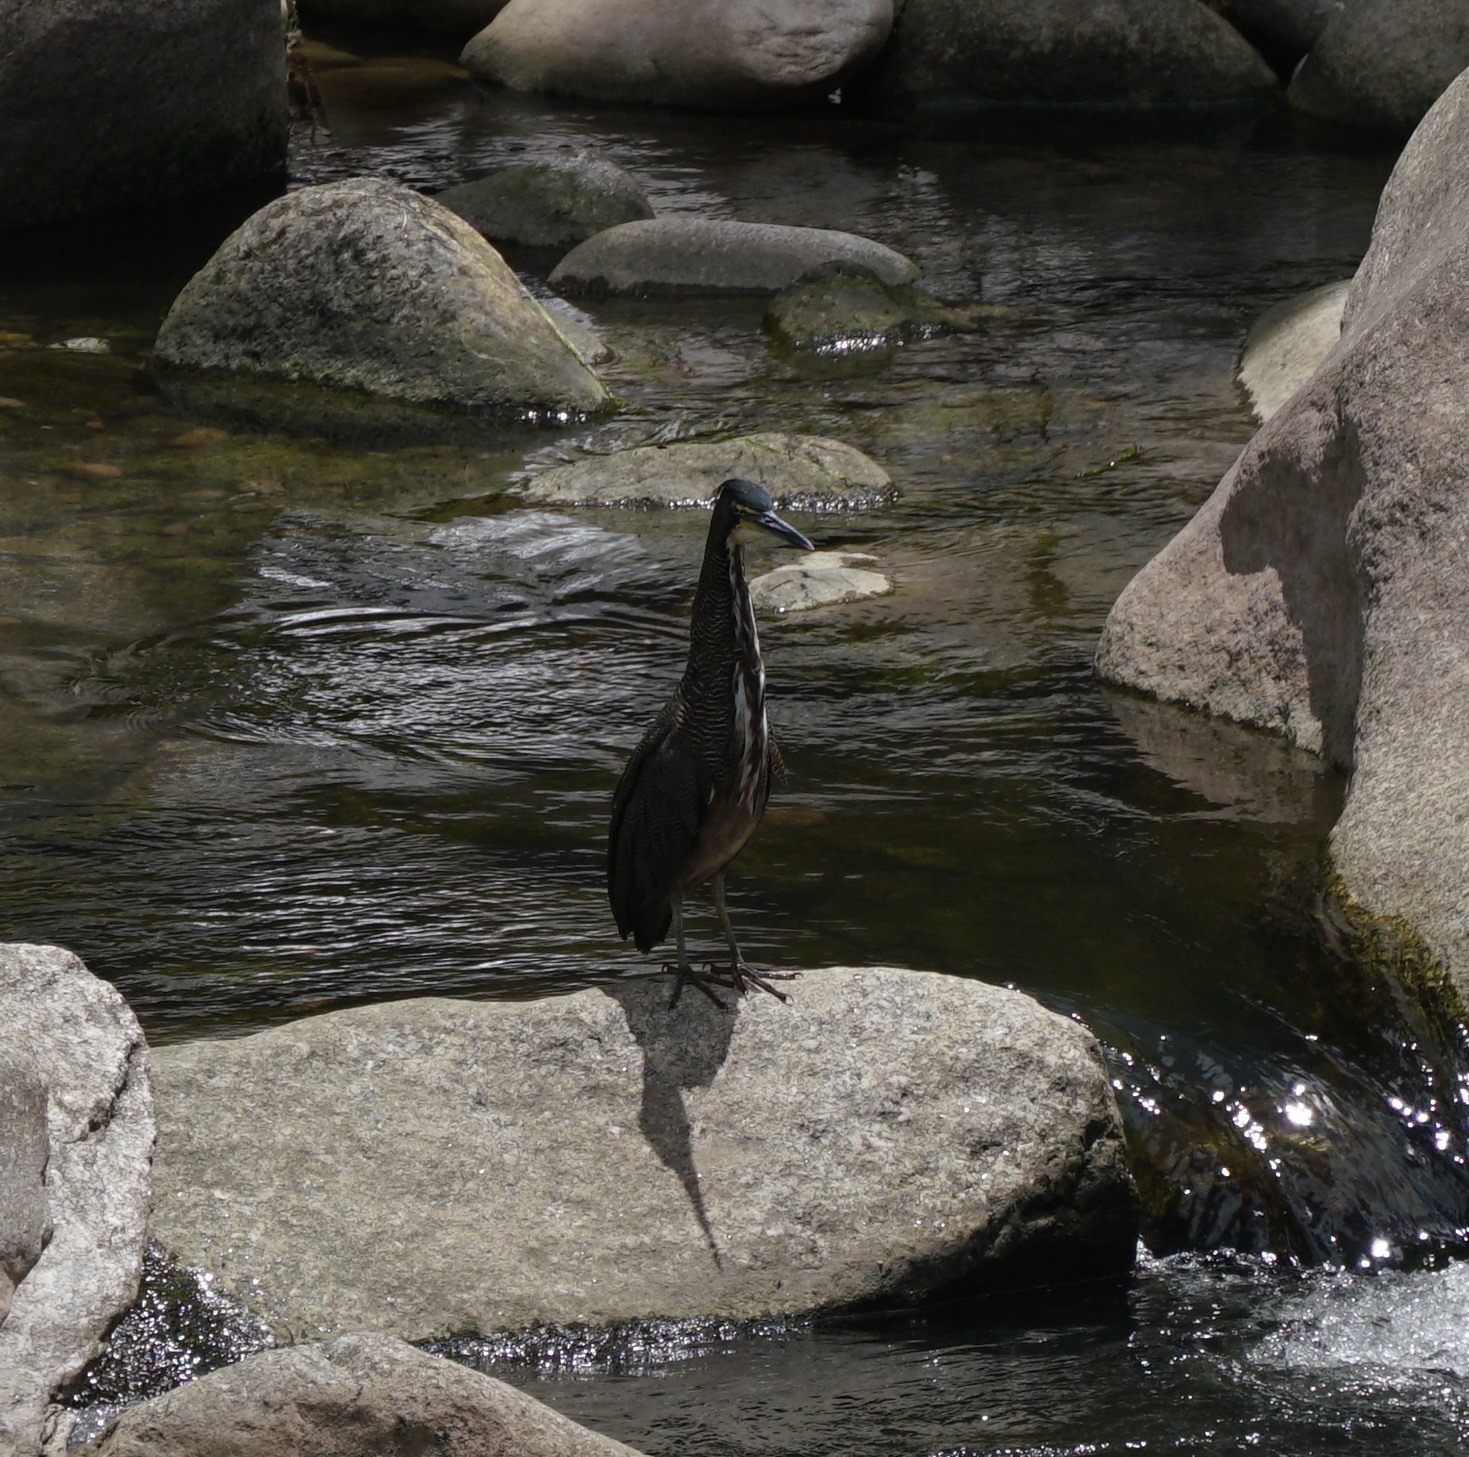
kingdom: Animalia
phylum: Chordata
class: Aves
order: Pelecaniformes
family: Ardeidae
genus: Tigrisoma
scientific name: Tigrisoma fasciatum
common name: Fasciated tiger-heron
